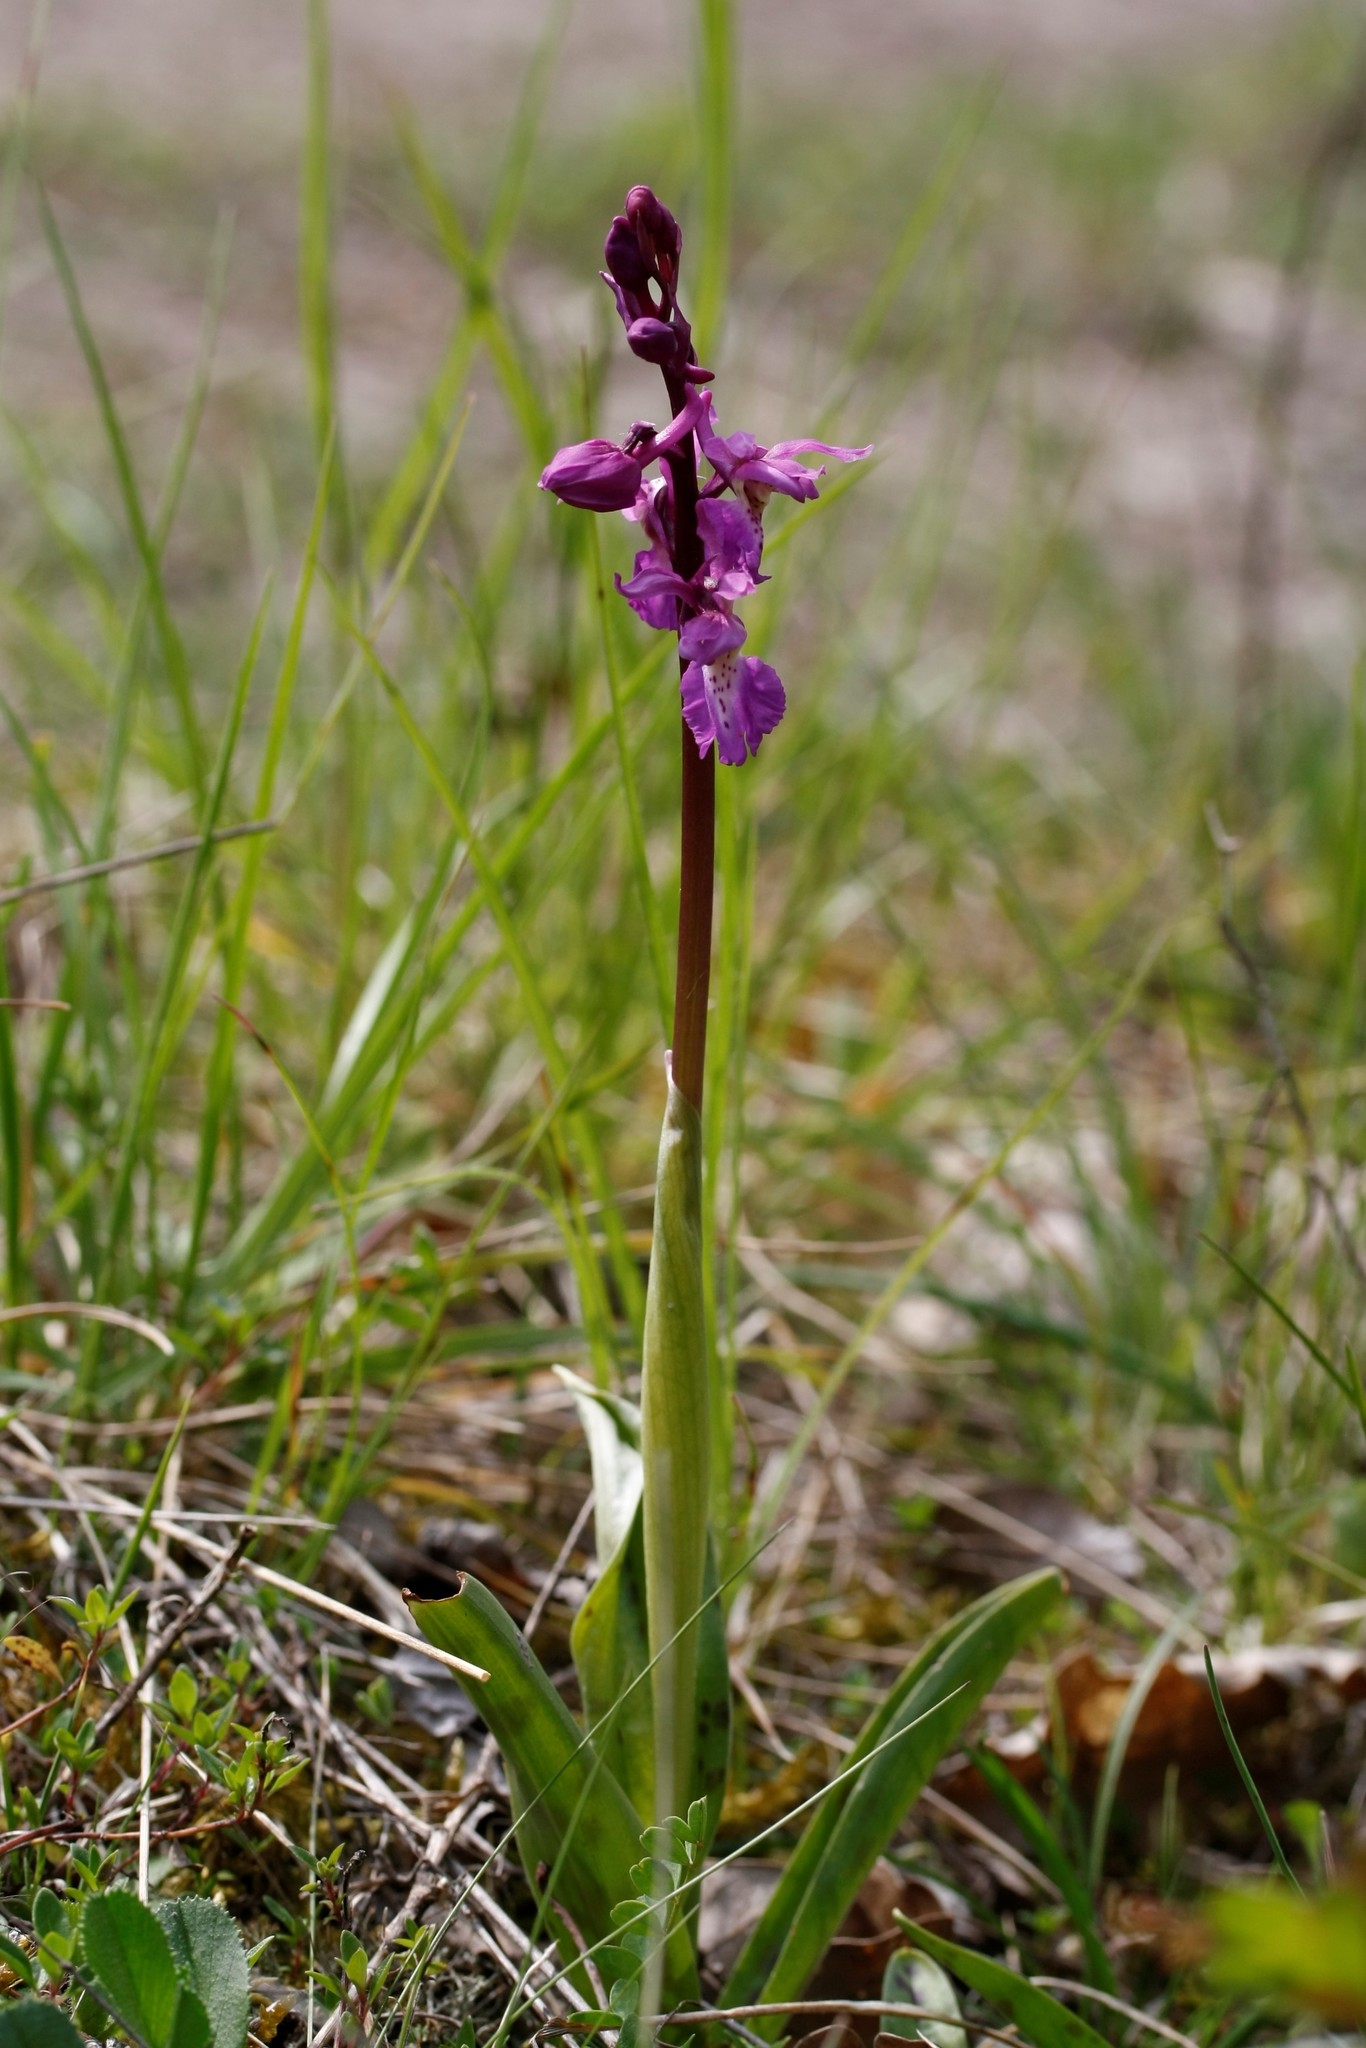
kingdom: Plantae
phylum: Tracheophyta
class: Liliopsida
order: Asparagales
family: Orchidaceae
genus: Orchis
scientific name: Orchis mascula
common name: Early-purple orchid
